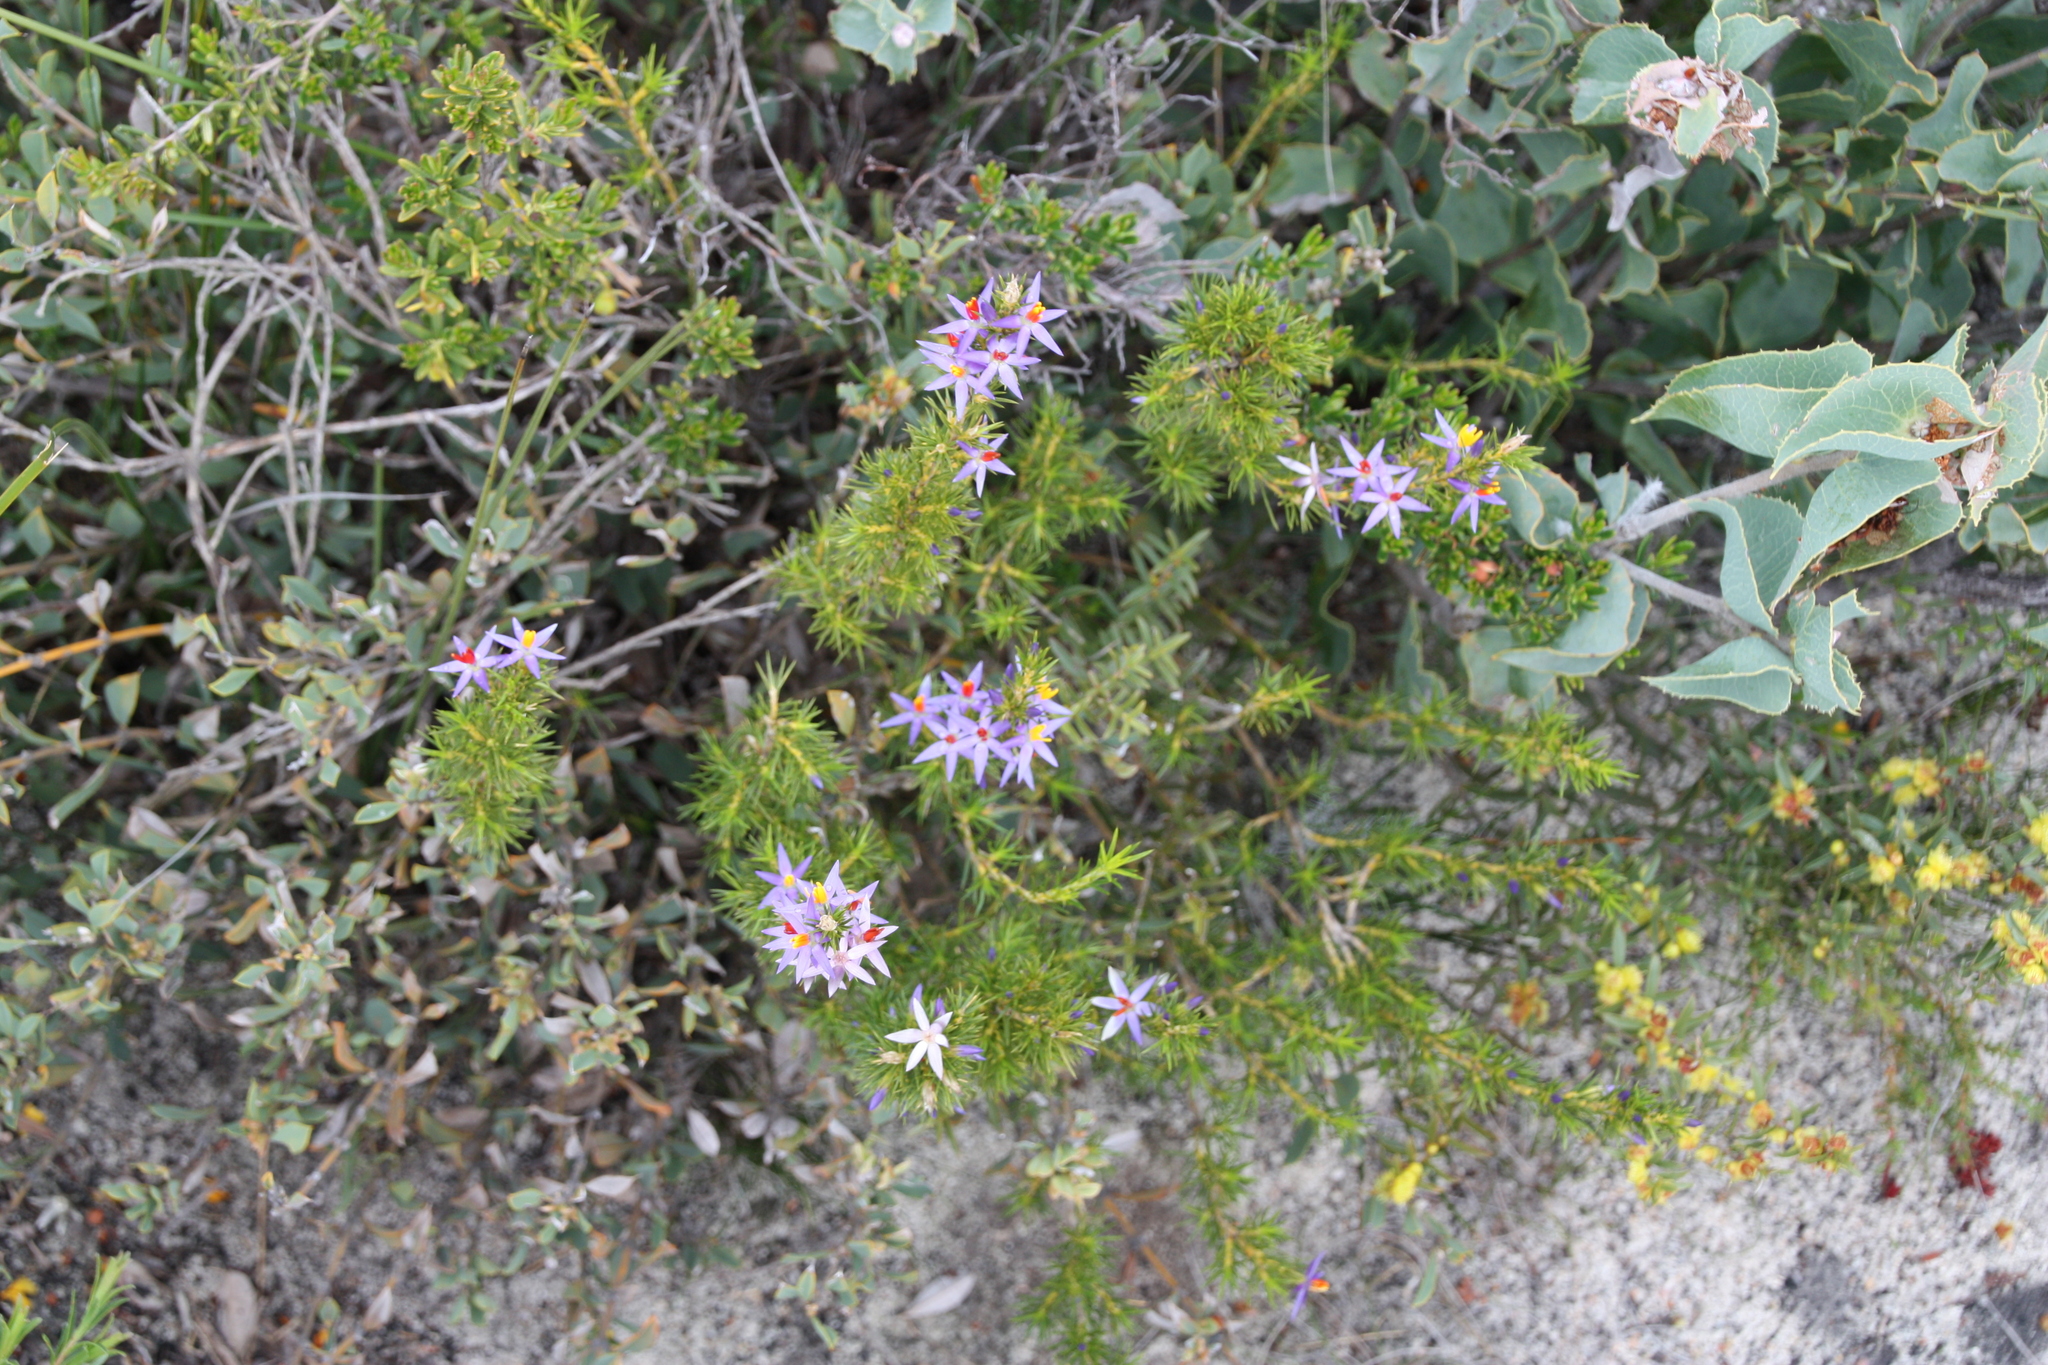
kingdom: Plantae
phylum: Tracheophyta
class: Liliopsida
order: Arecales
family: Dasypogonaceae
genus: Calectasia
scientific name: Calectasia narragara
